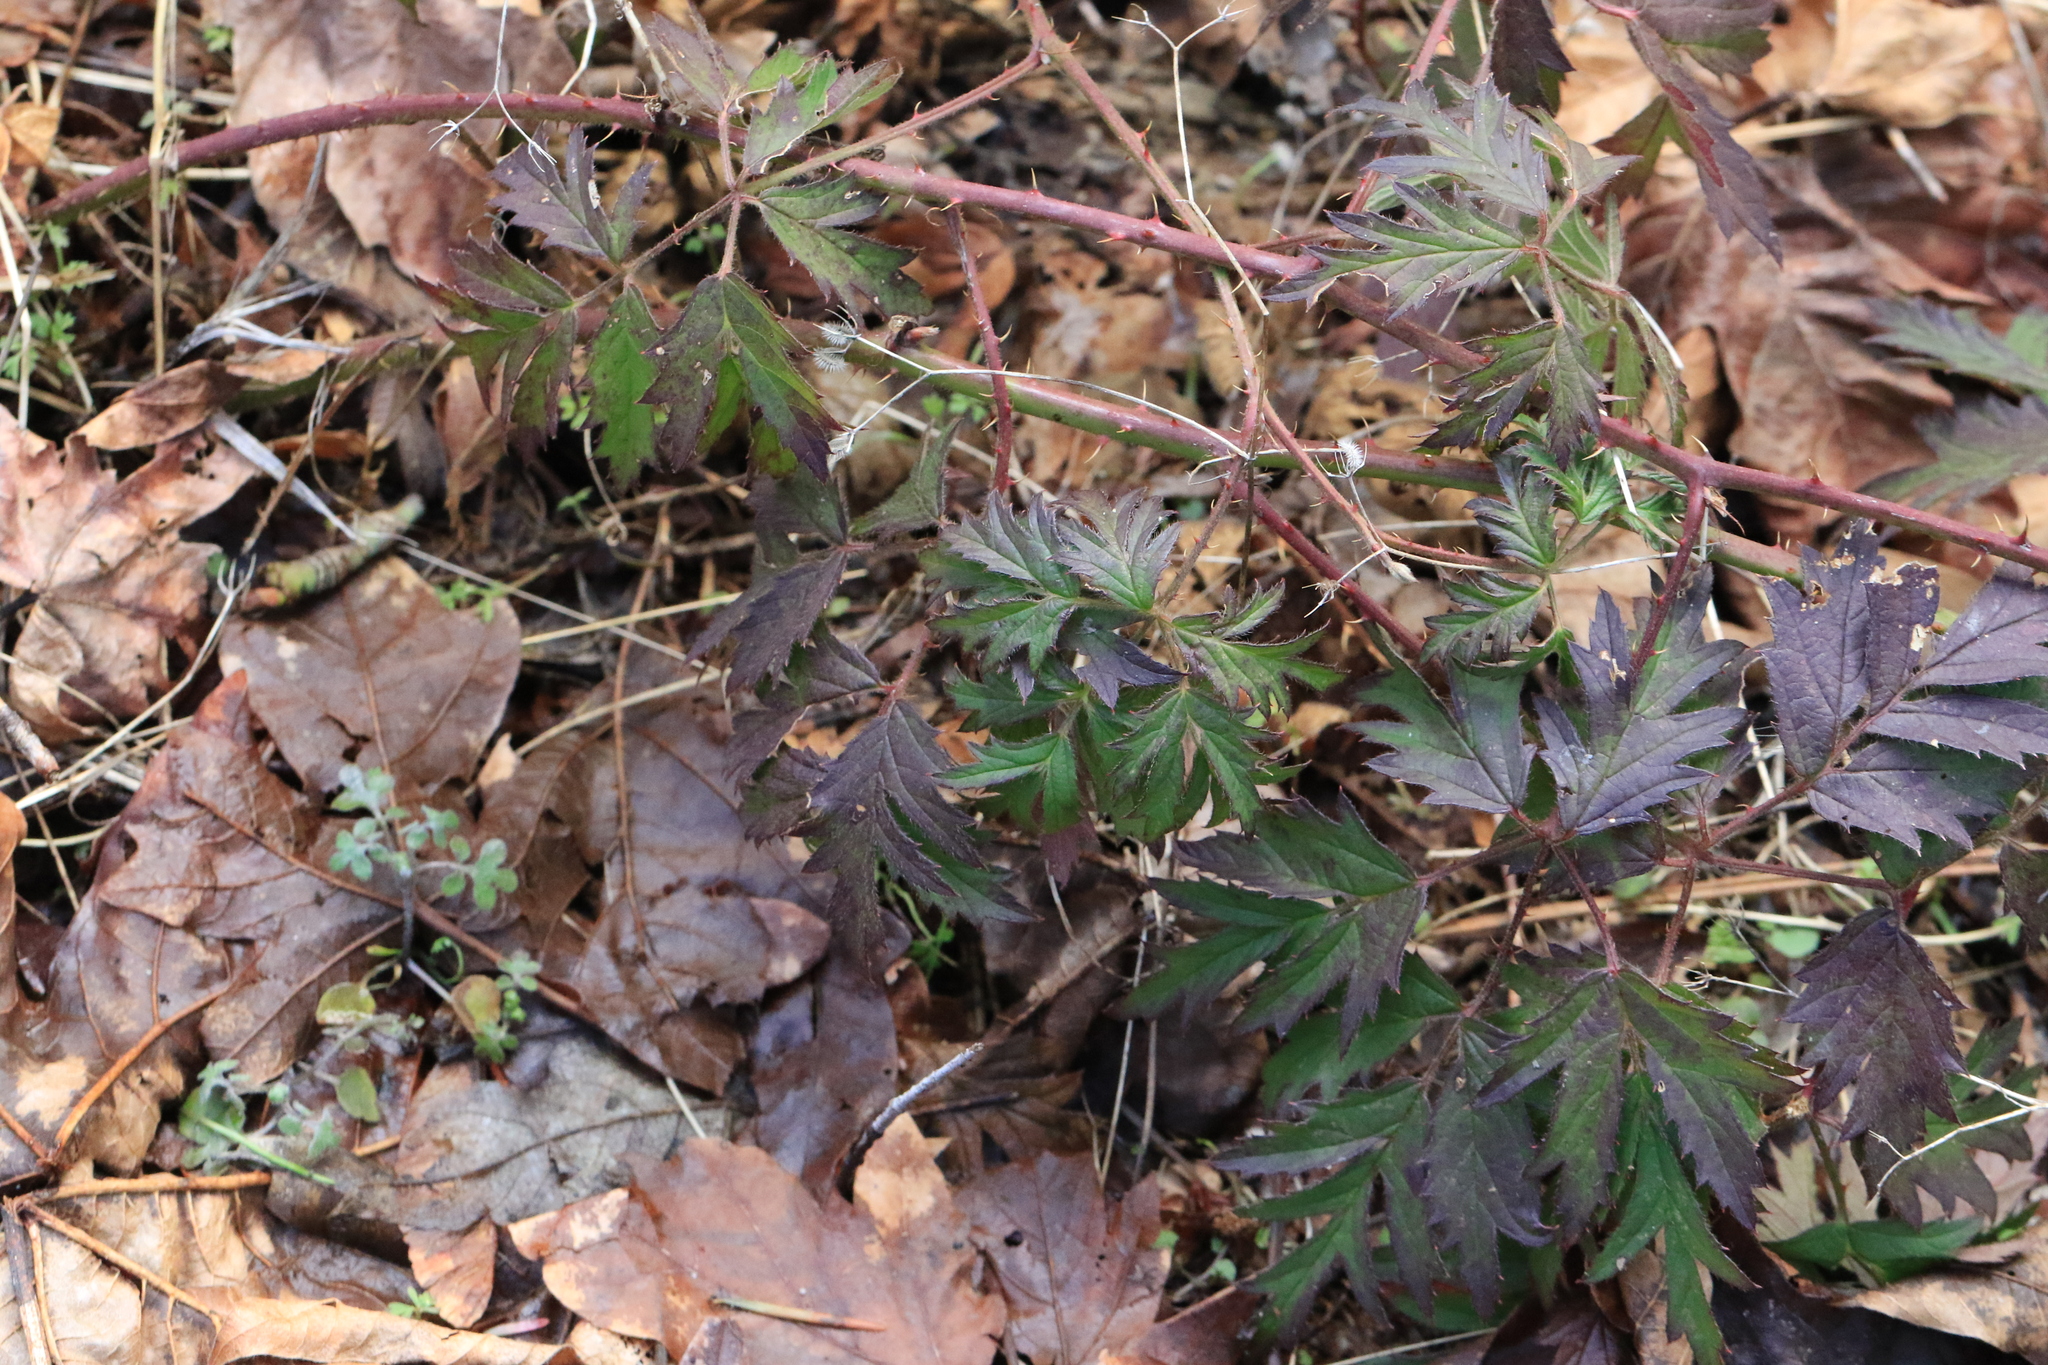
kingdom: Plantae
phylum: Tracheophyta
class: Magnoliopsida
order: Rosales
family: Rosaceae
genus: Rubus
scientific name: Rubus laciniatus
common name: Evergreen blackberry
